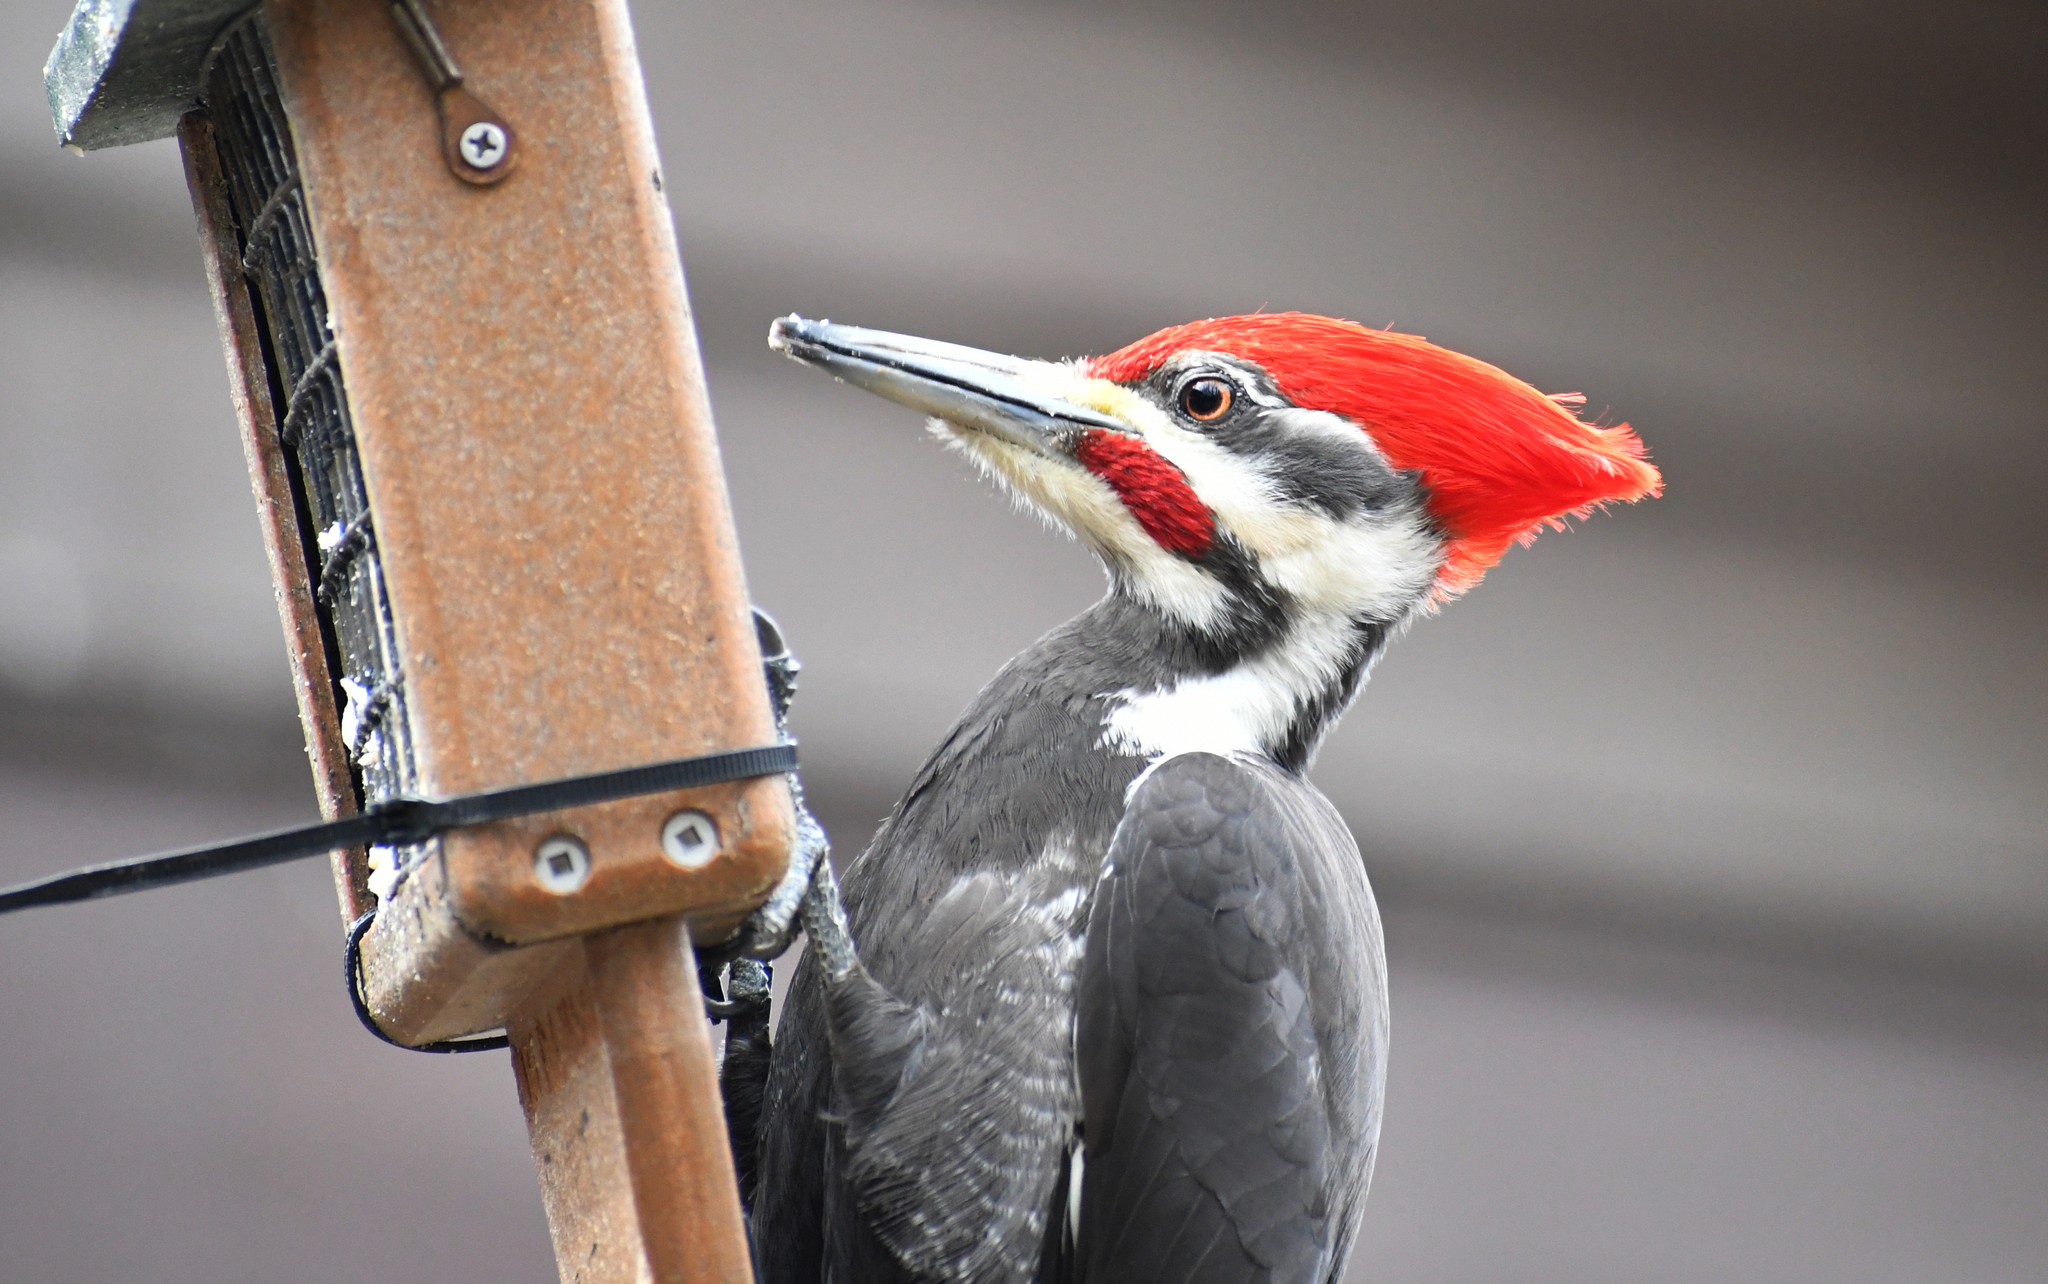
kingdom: Animalia
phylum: Chordata
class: Aves
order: Piciformes
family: Picidae
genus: Dryocopus
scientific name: Dryocopus pileatus
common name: Pileated woodpecker
